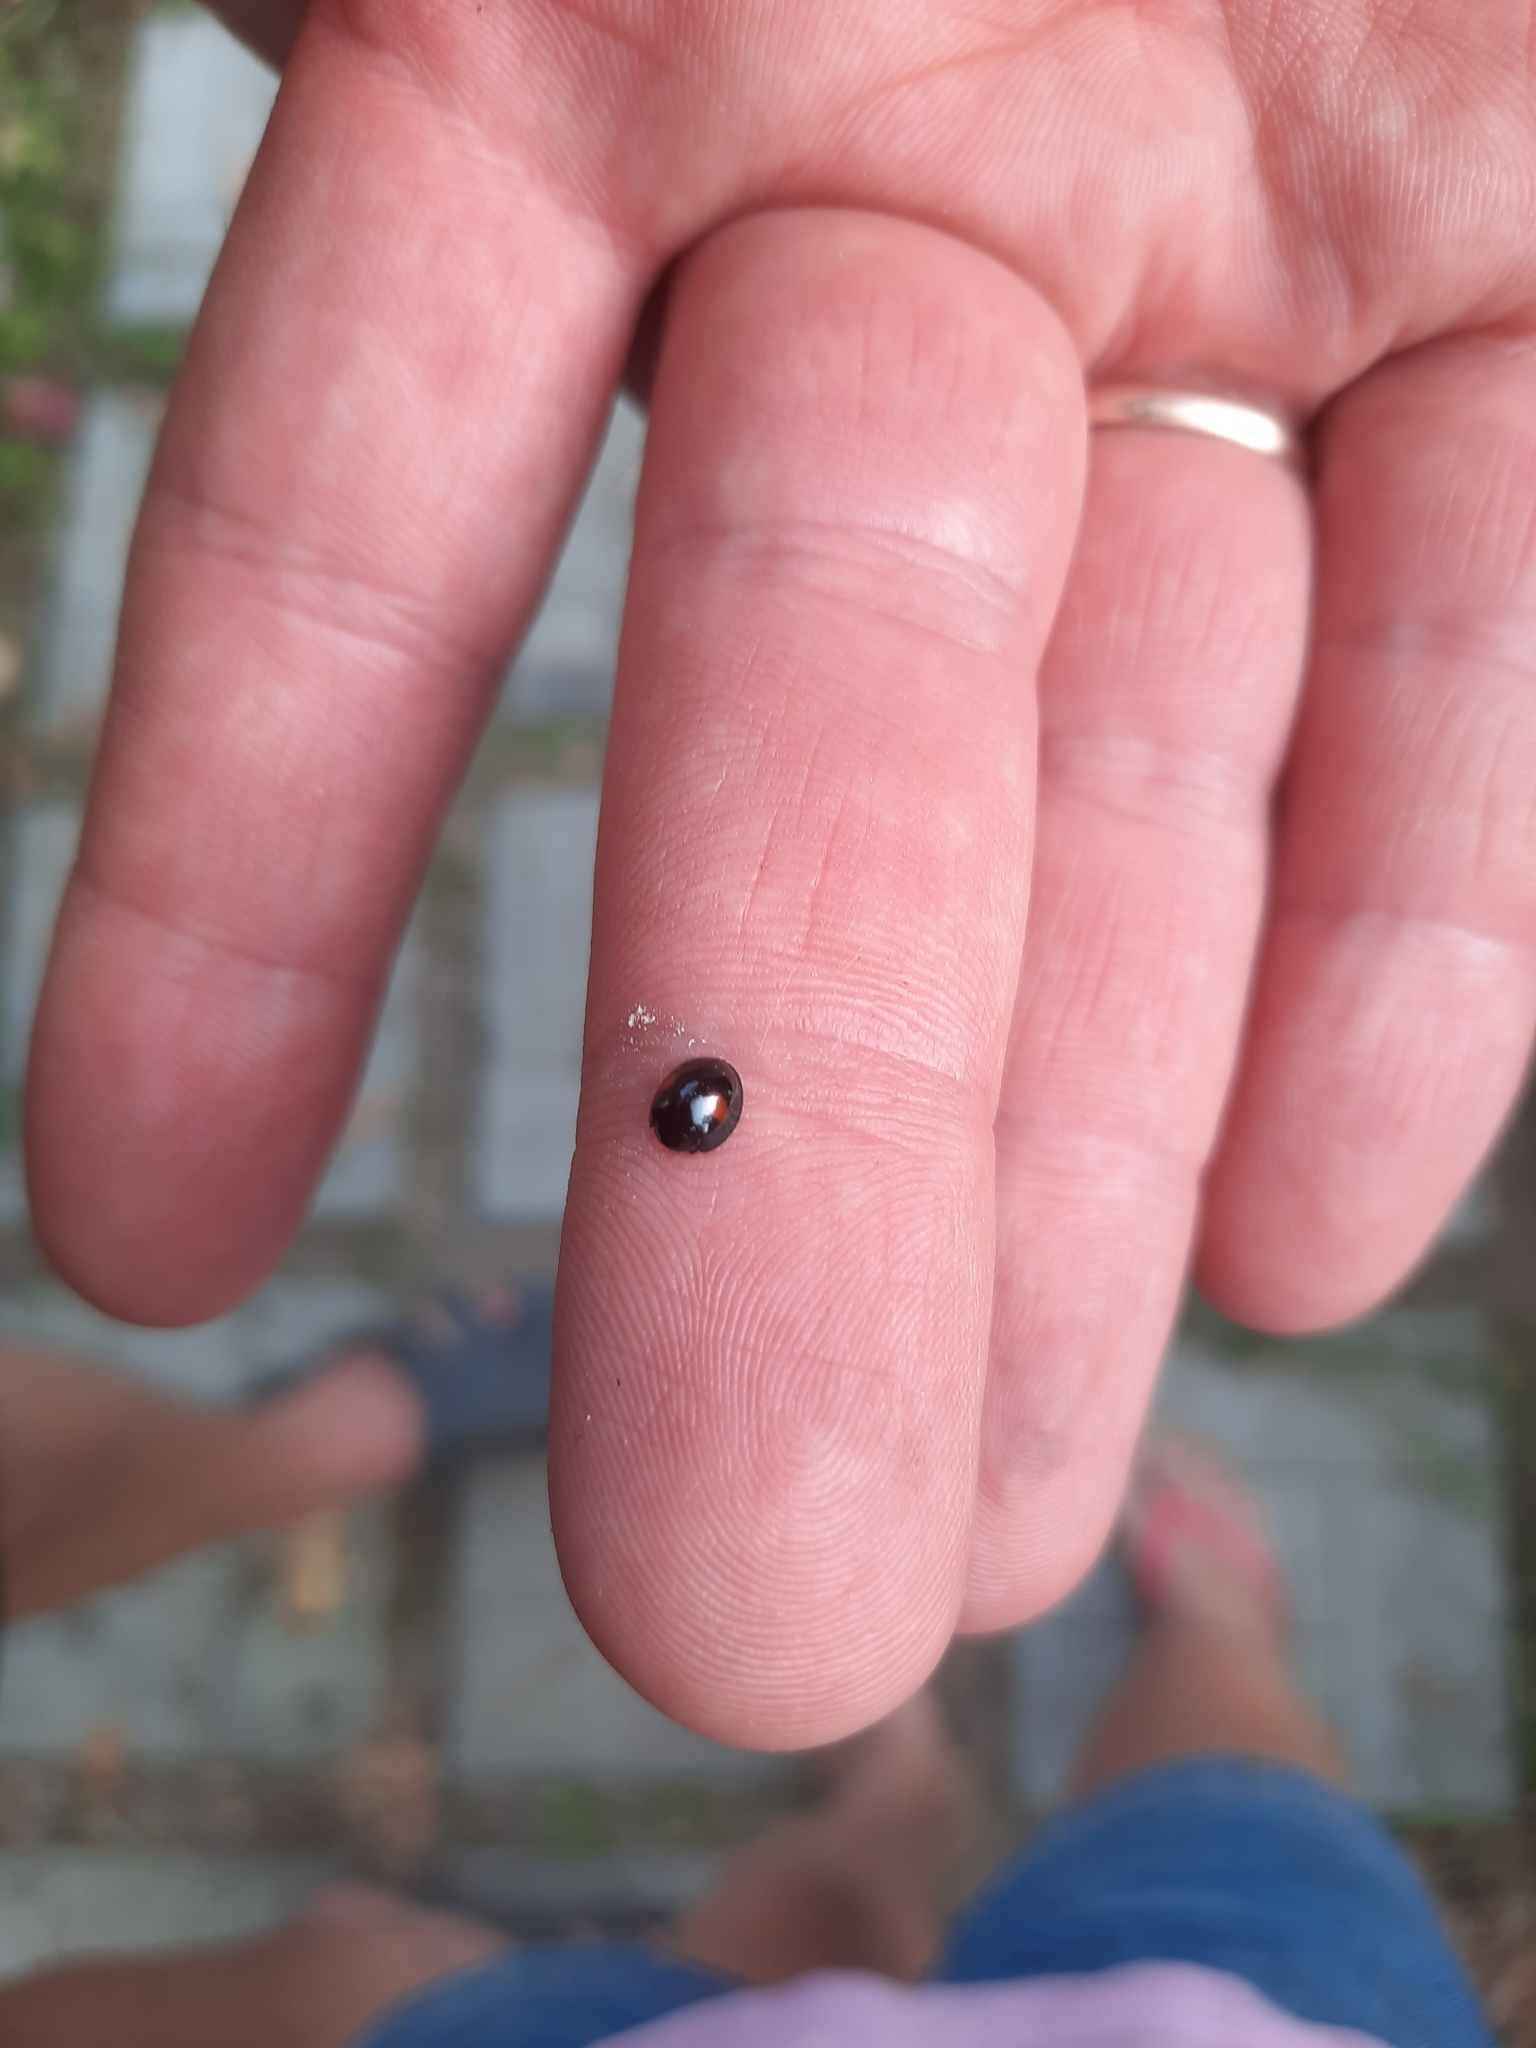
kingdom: Animalia
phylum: Arthropoda
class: Insecta
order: Coleoptera
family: Coccinellidae
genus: Chilocorus
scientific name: Chilocorus renipustulatus
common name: Kidney-spot ladybird
